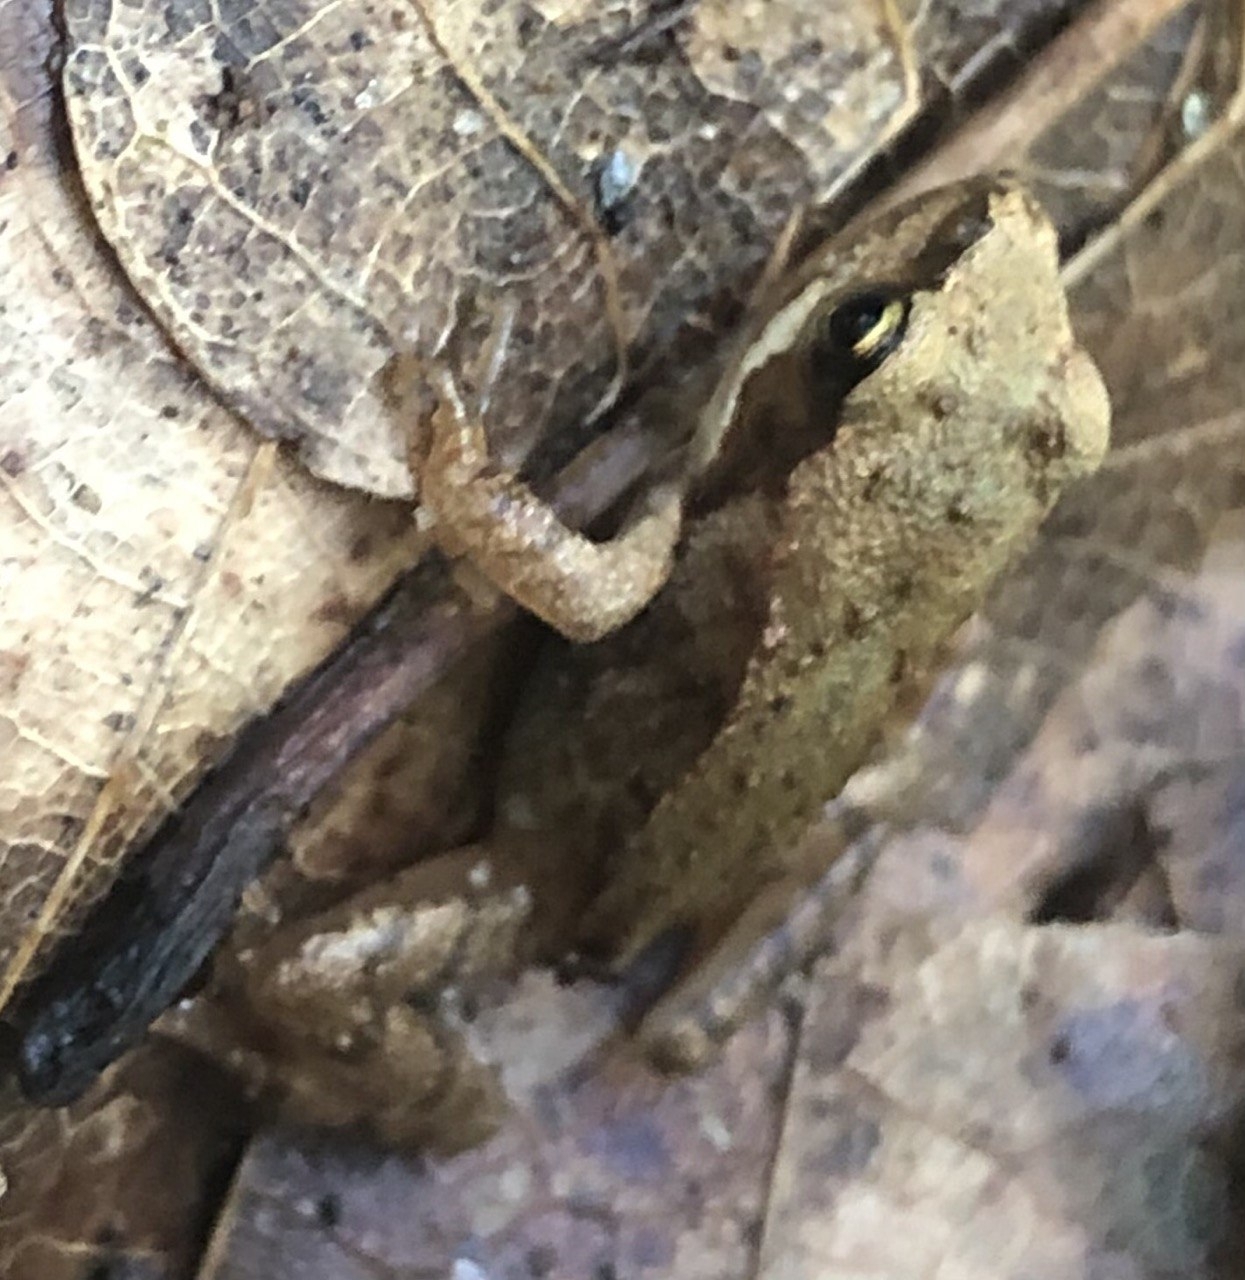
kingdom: Animalia
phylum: Chordata
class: Amphibia
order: Anura
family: Ranidae
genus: Rana
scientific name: Rana temporaria
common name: Common frog
